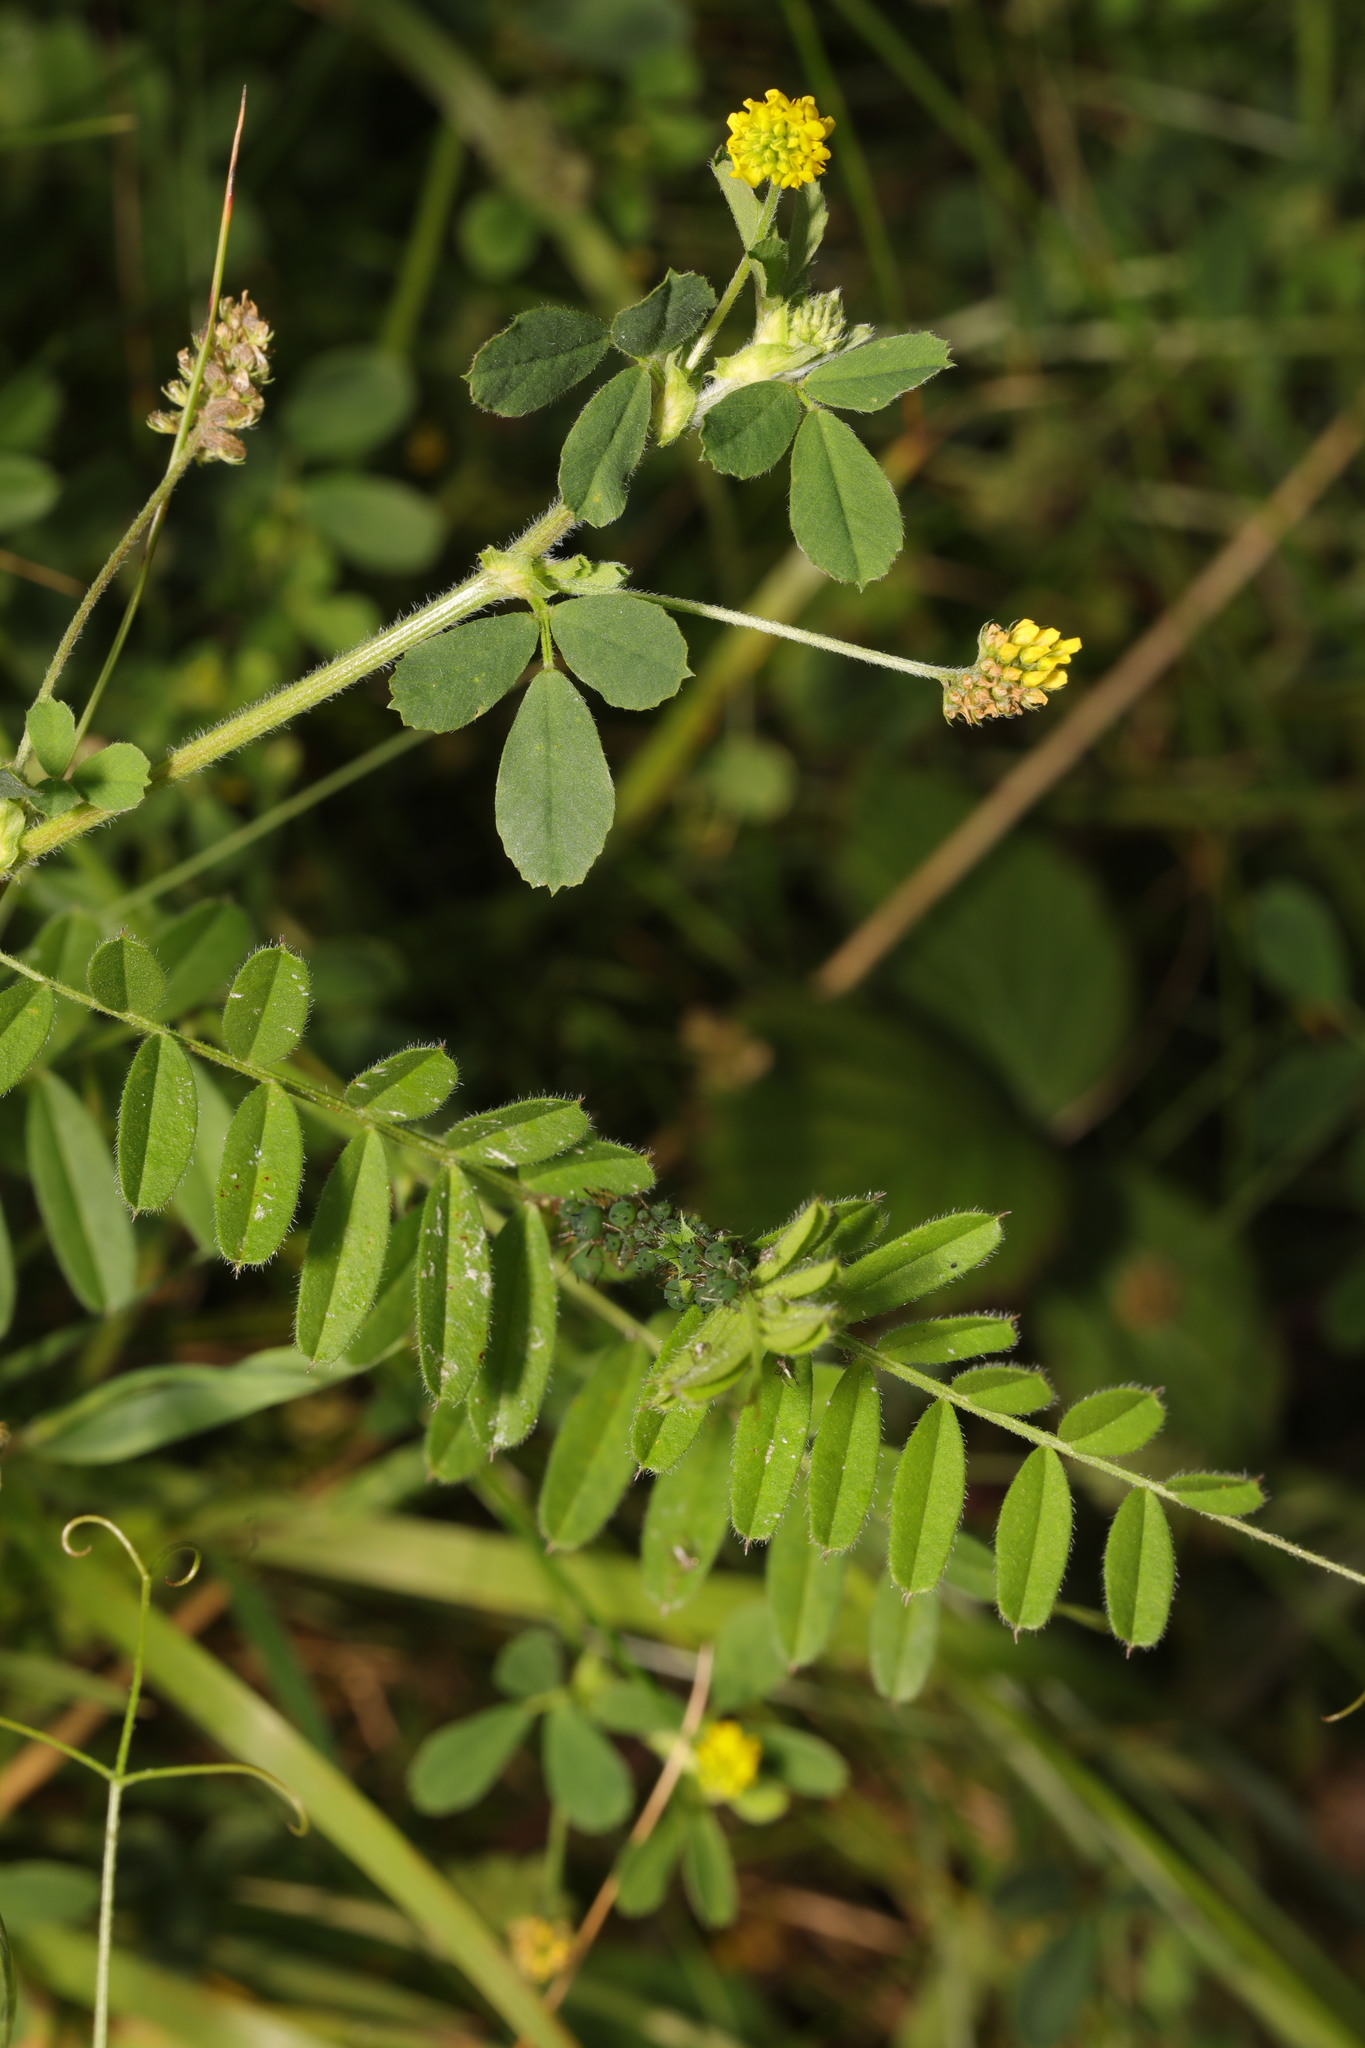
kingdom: Plantae
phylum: Tracheophyta
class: Magnoliopsida
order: Fabales
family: Fabaceae
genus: Medicago
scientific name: Medicago lupulina
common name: Black medick
